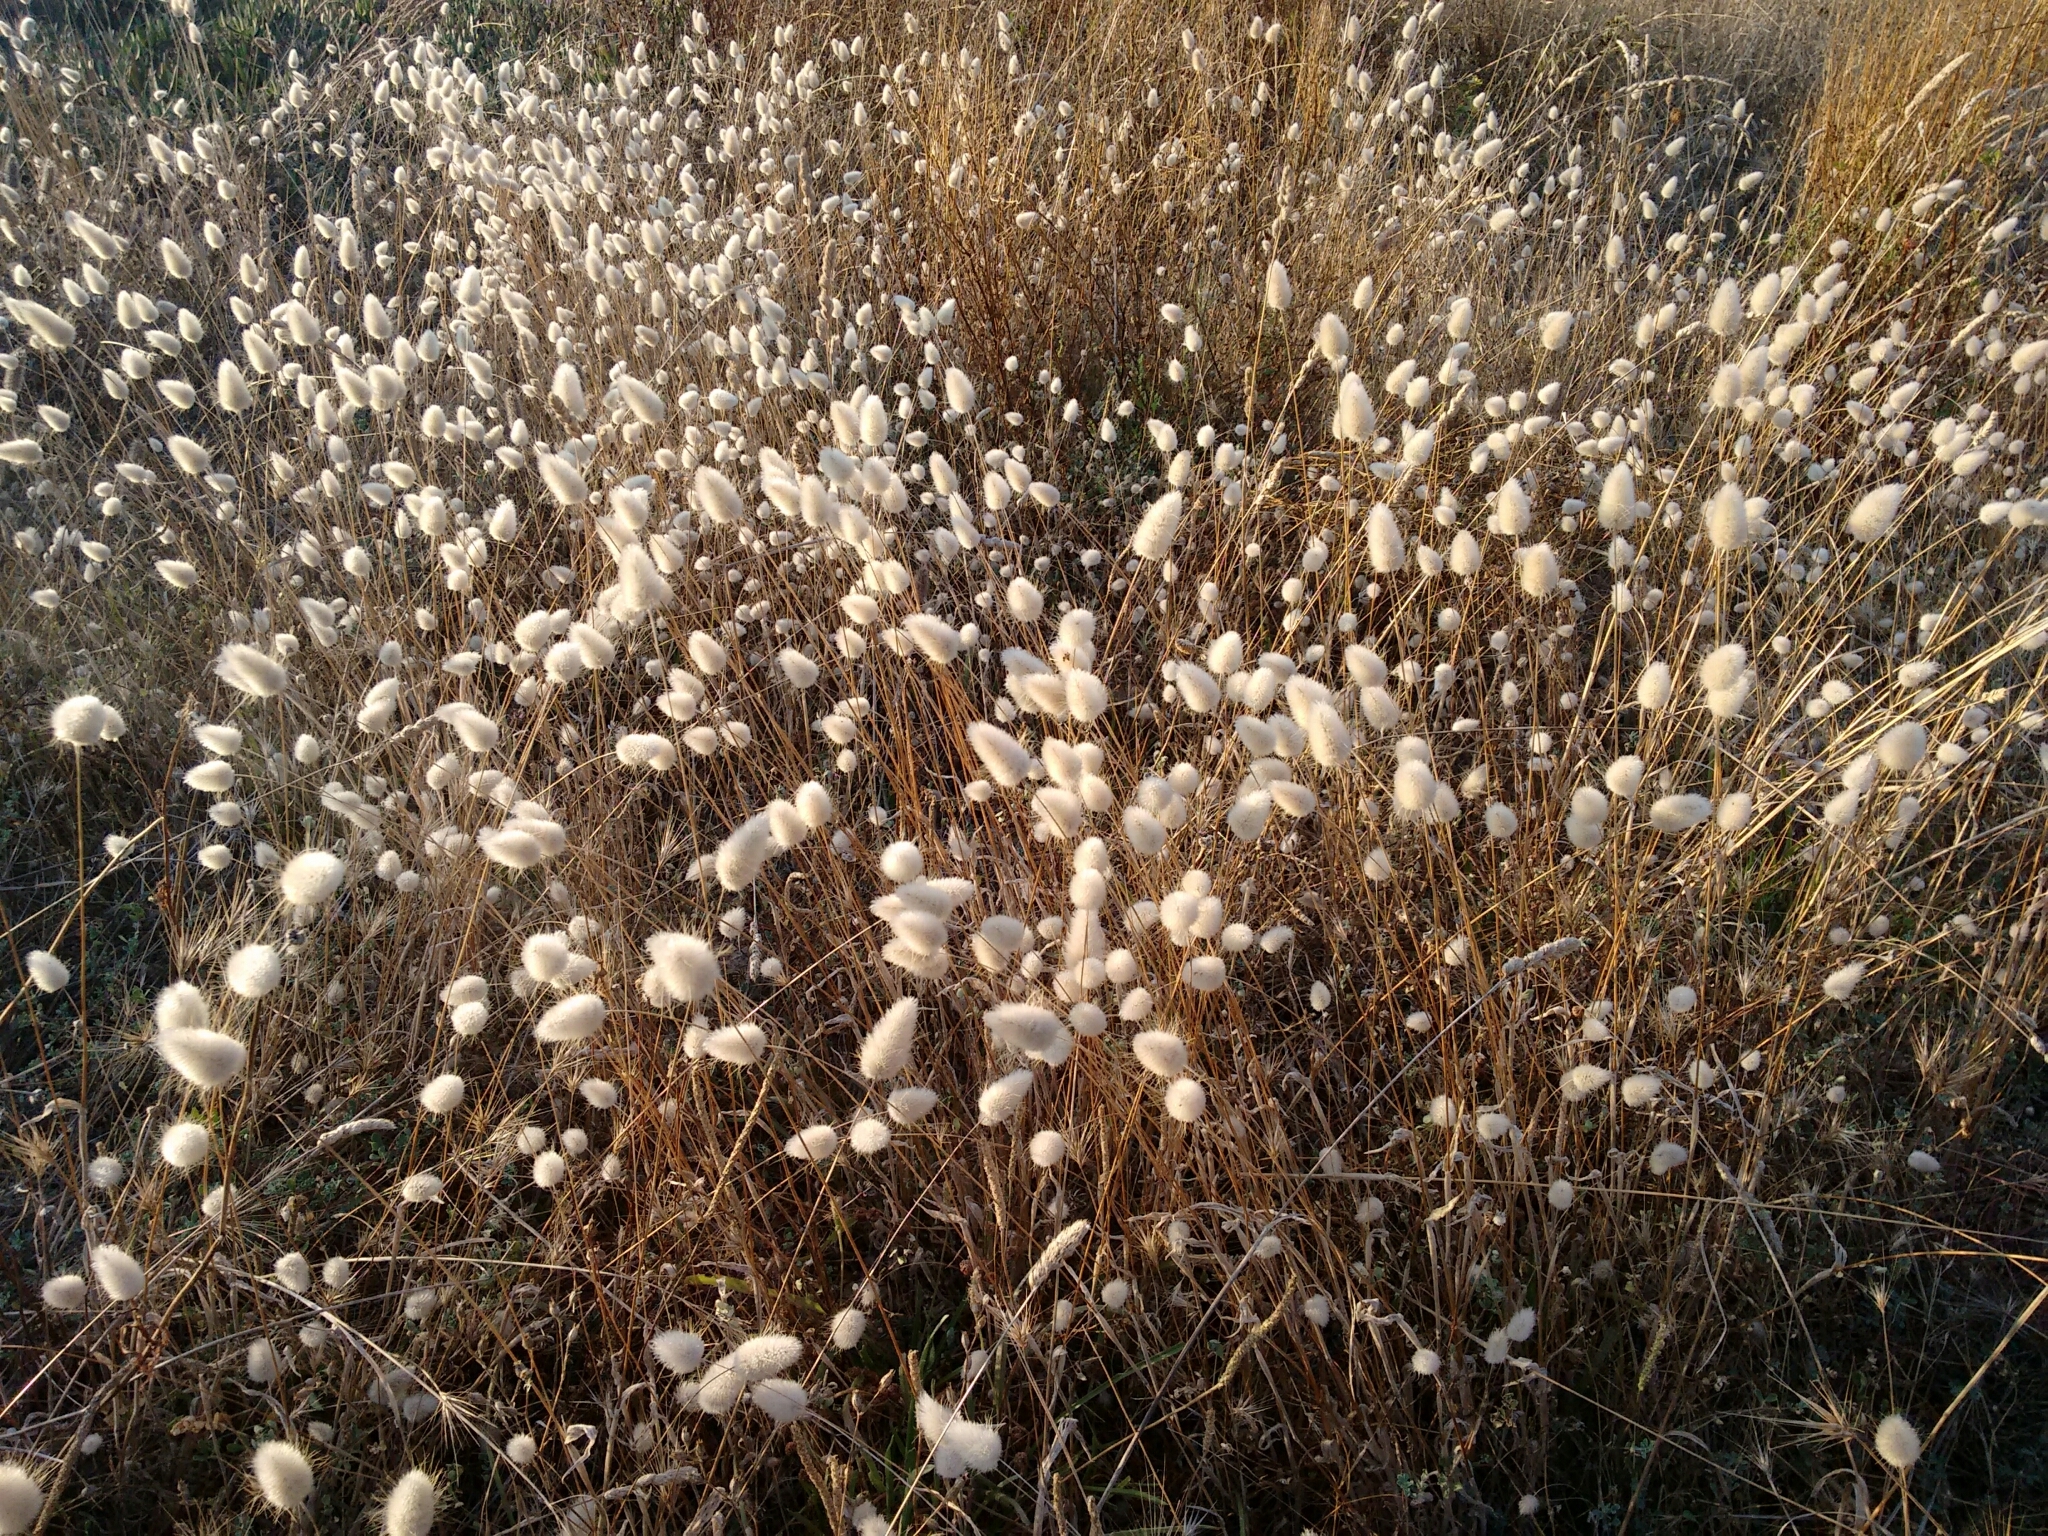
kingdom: Plantae
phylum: Tracheophyta
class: Liliopsida
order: Poales
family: Poaceae
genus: Lagurus
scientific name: Lagurus ovatus
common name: Hare's-tail
